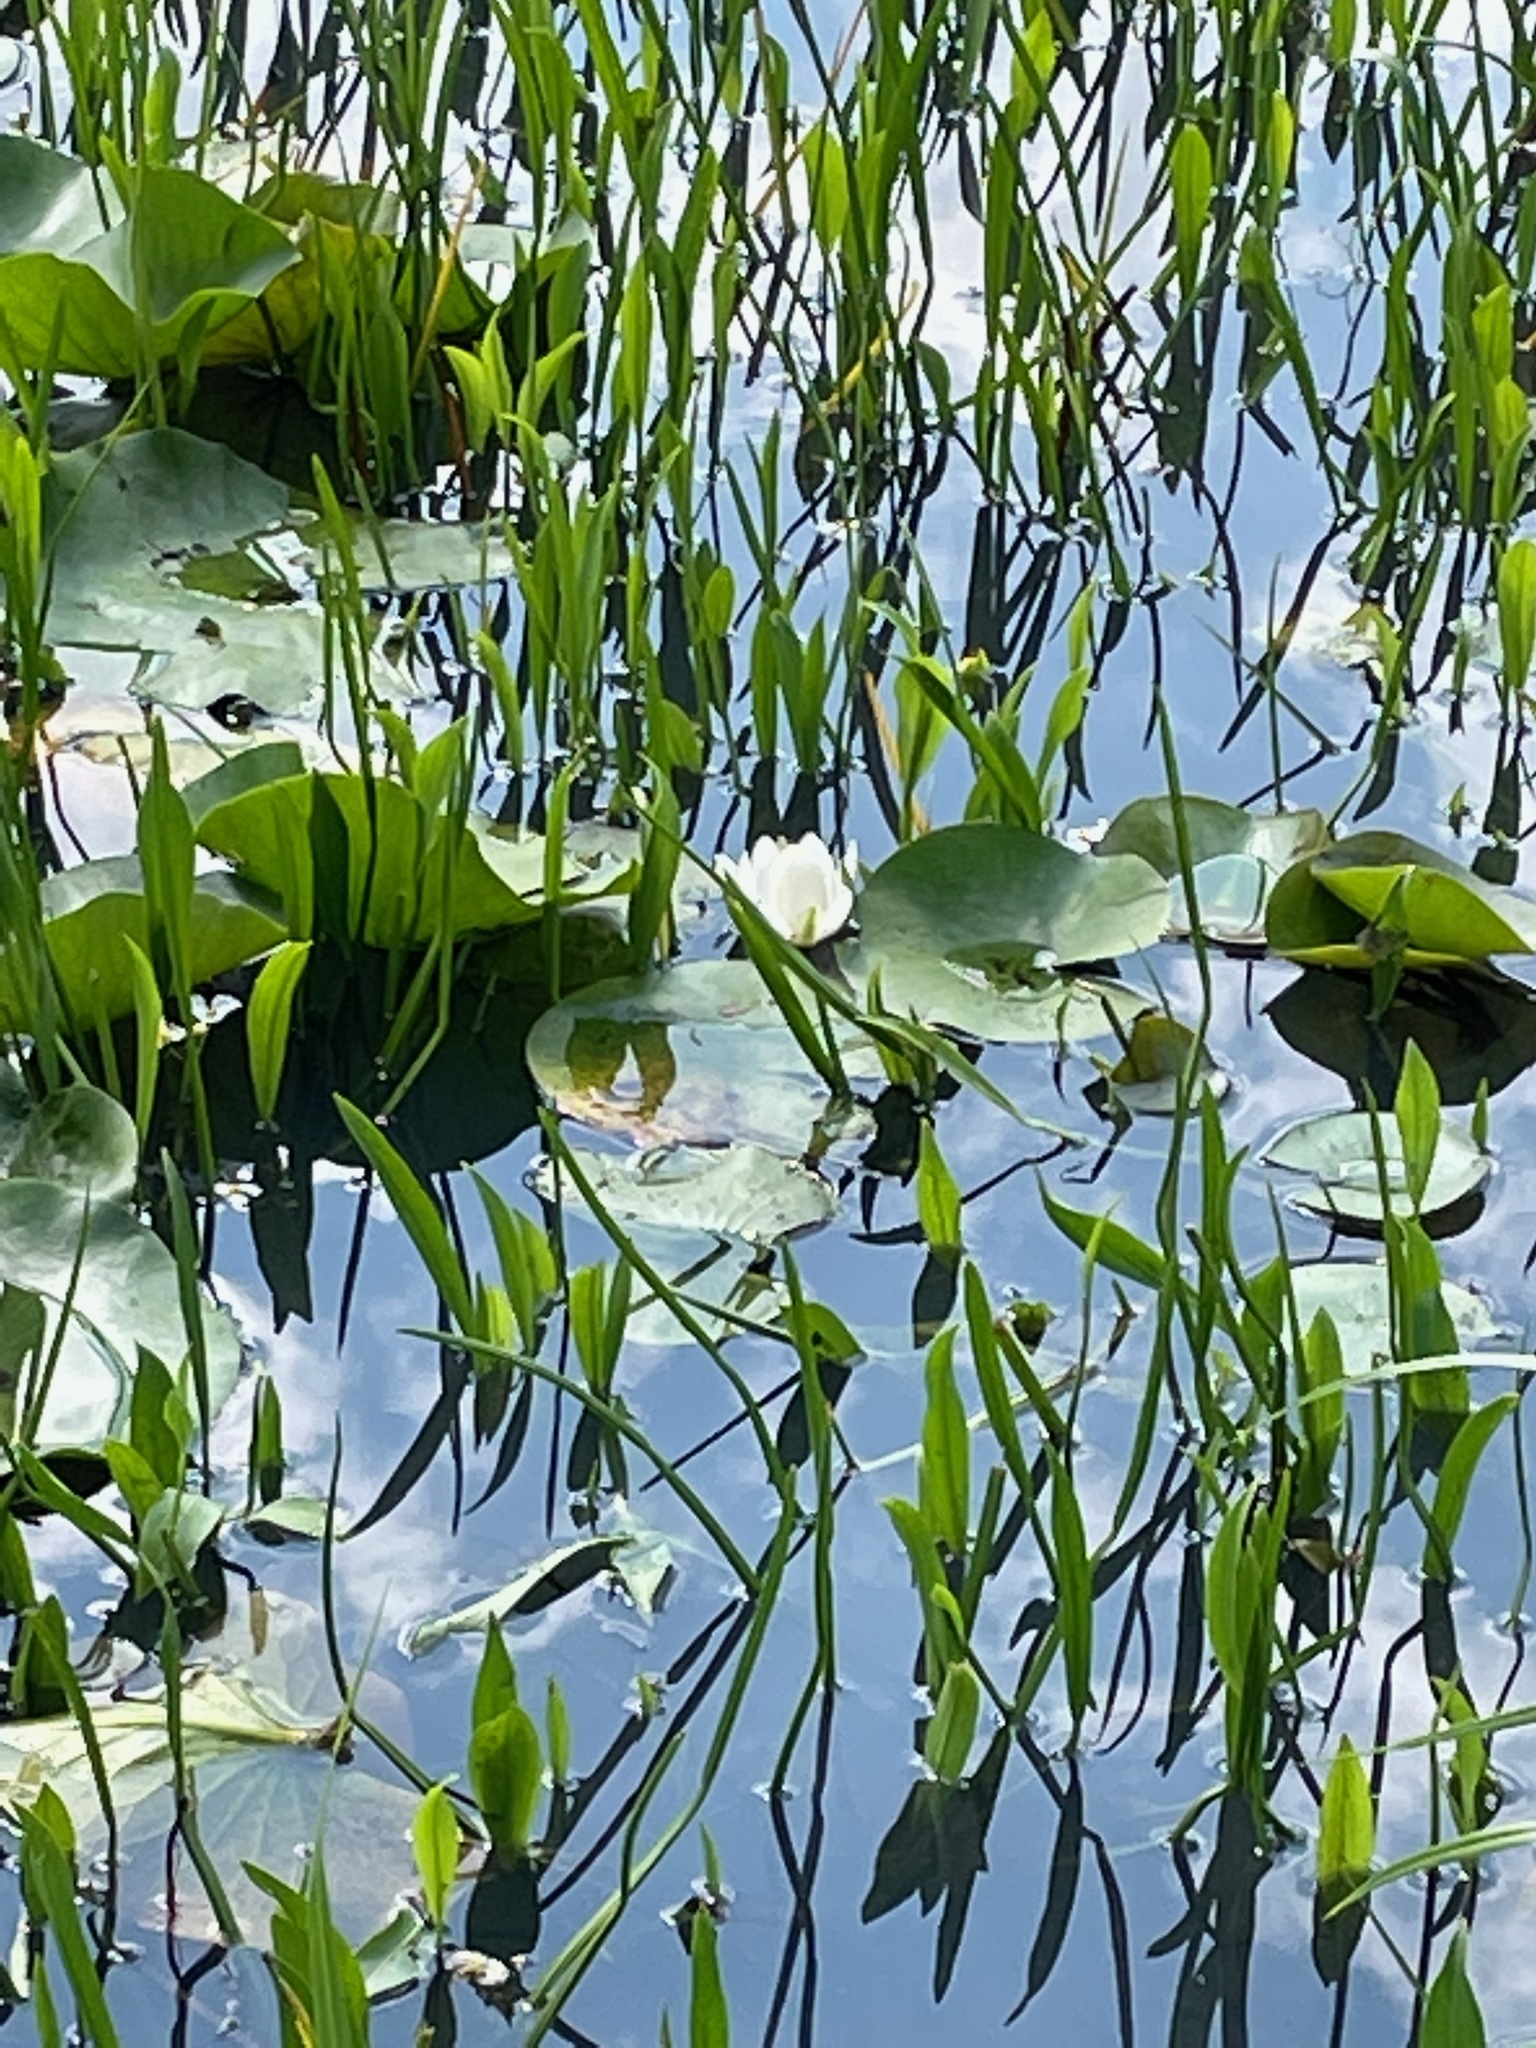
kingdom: Plantae
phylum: Tracheophyta
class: Magnoliopsida
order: Nymphaeales
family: Nymphaeaceae
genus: Nymphaea
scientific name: Nymphaea odorata
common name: Fragrant water-lily
